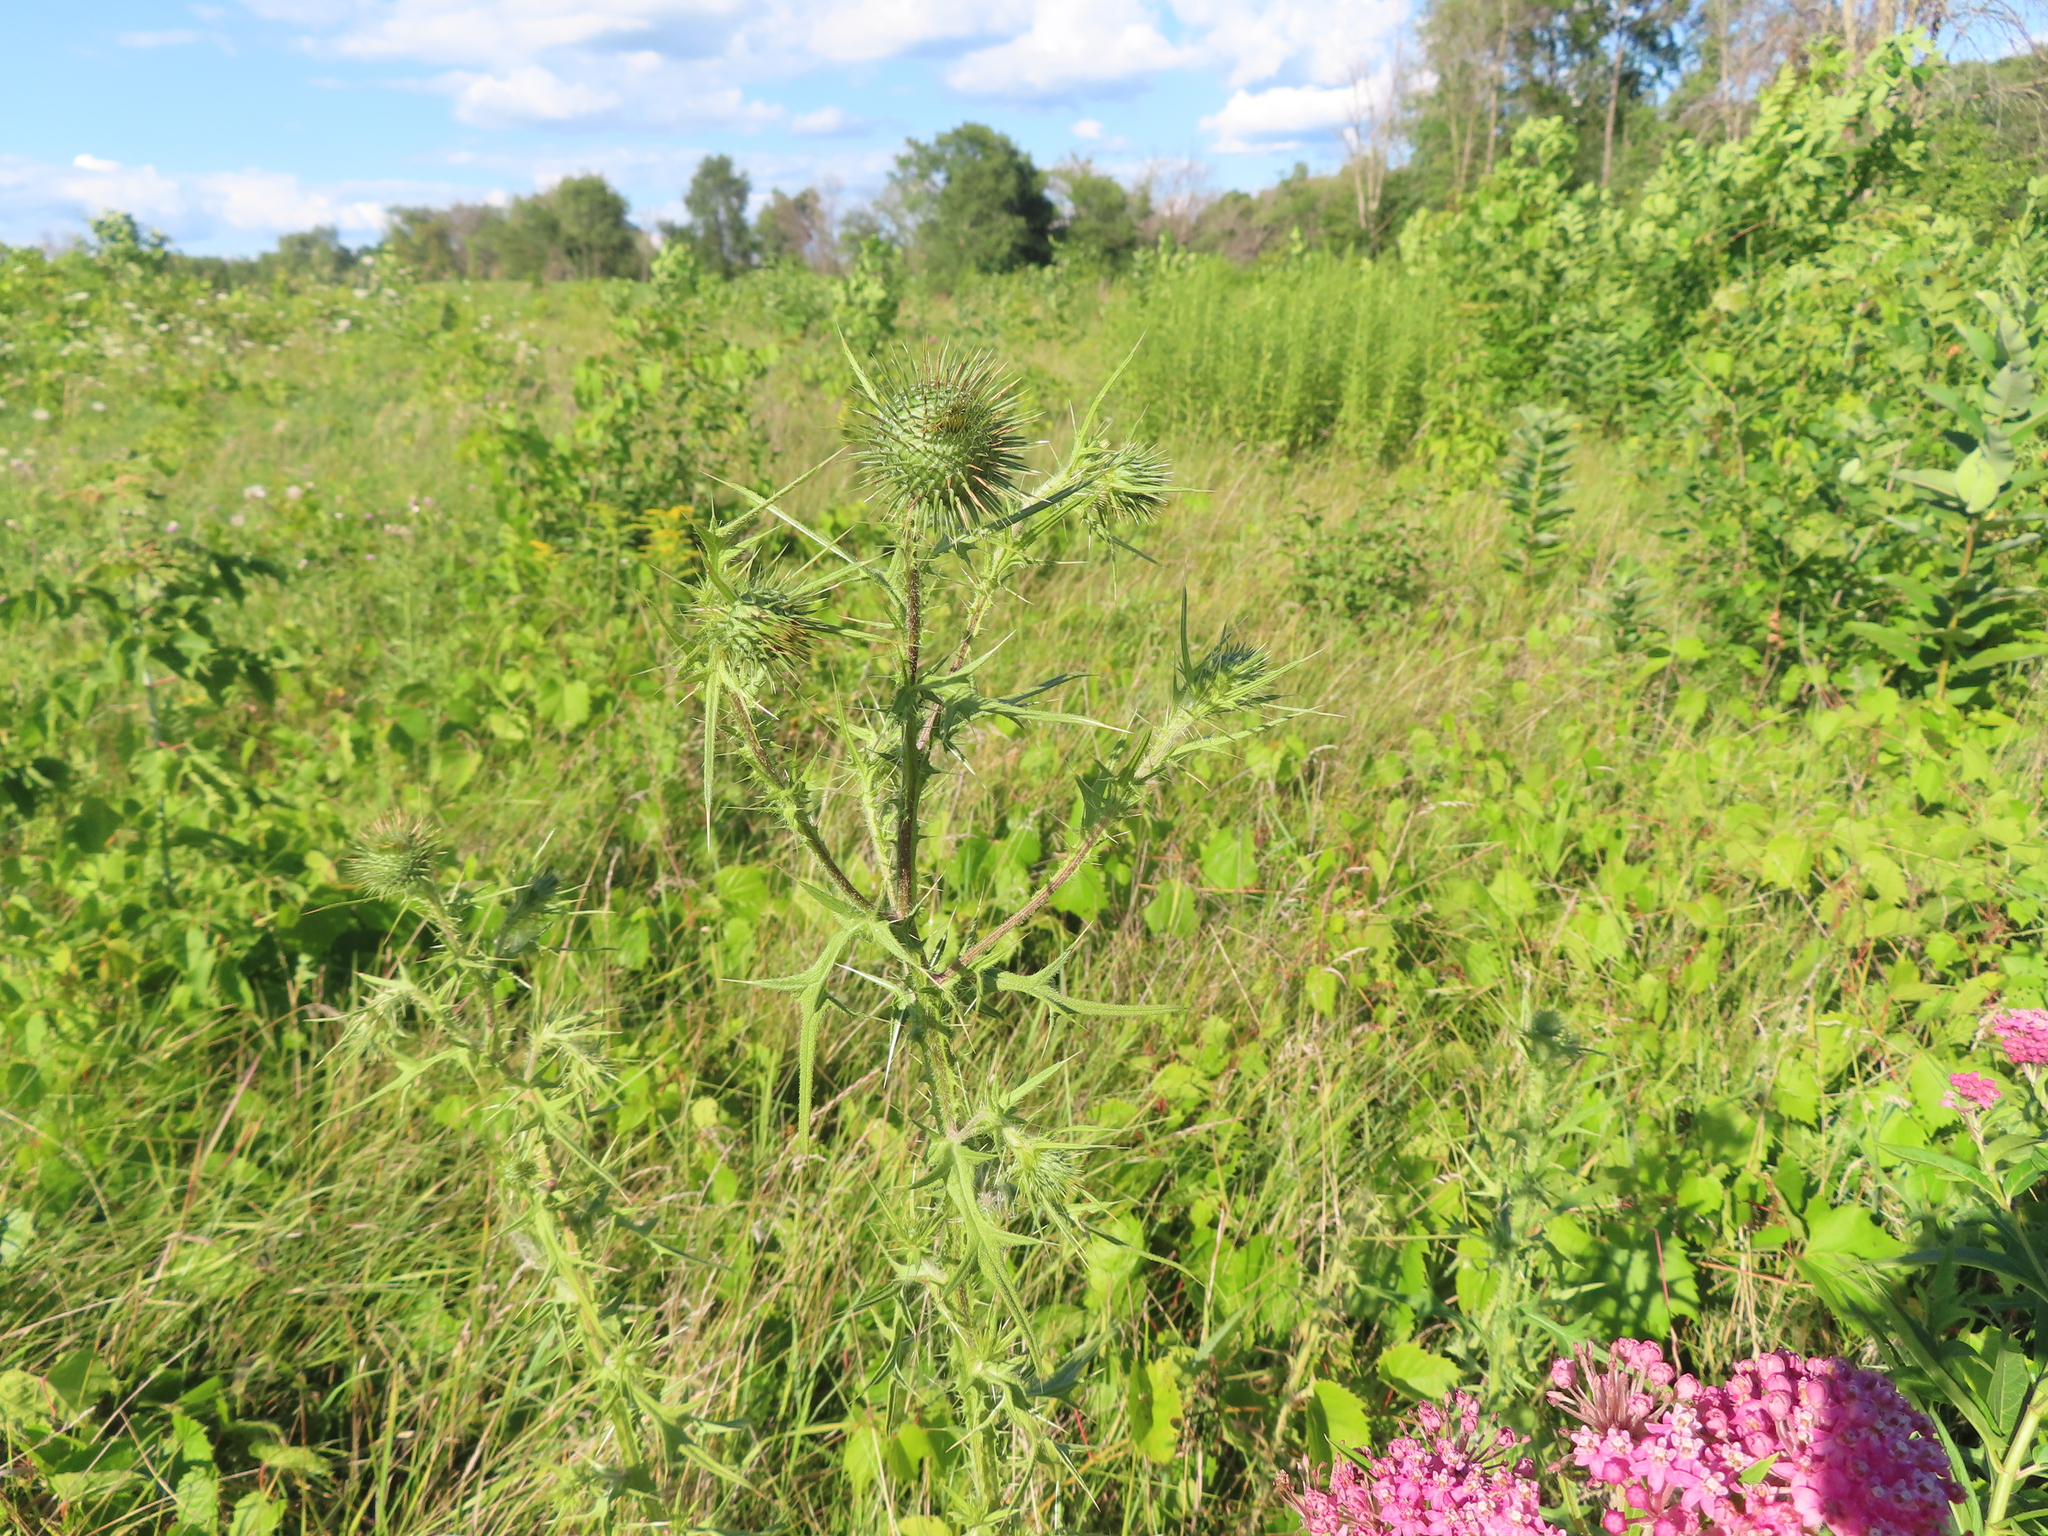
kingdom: Plantae
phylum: Tracheophyta
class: Magnoliopsida
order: Asterales
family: Asteraceae
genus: Cirsium
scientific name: Cirsium vulgare
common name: Bull thistle
